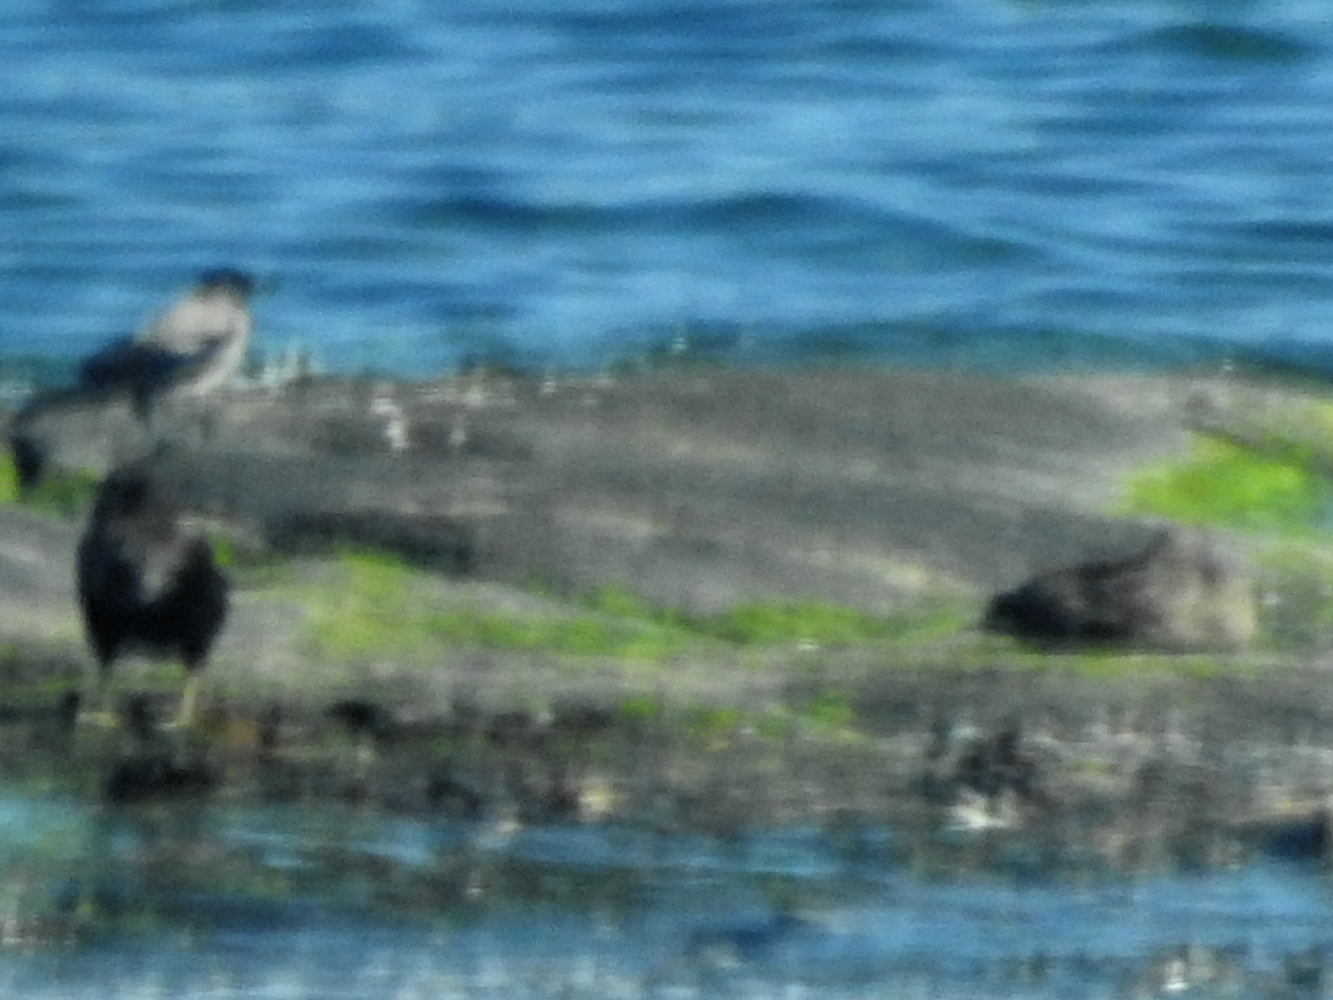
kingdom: Animalia
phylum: Chordata
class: Aves
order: Passeriformes
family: Corvidae
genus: Corvus
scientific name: Corvus cornix
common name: Hooded crow
